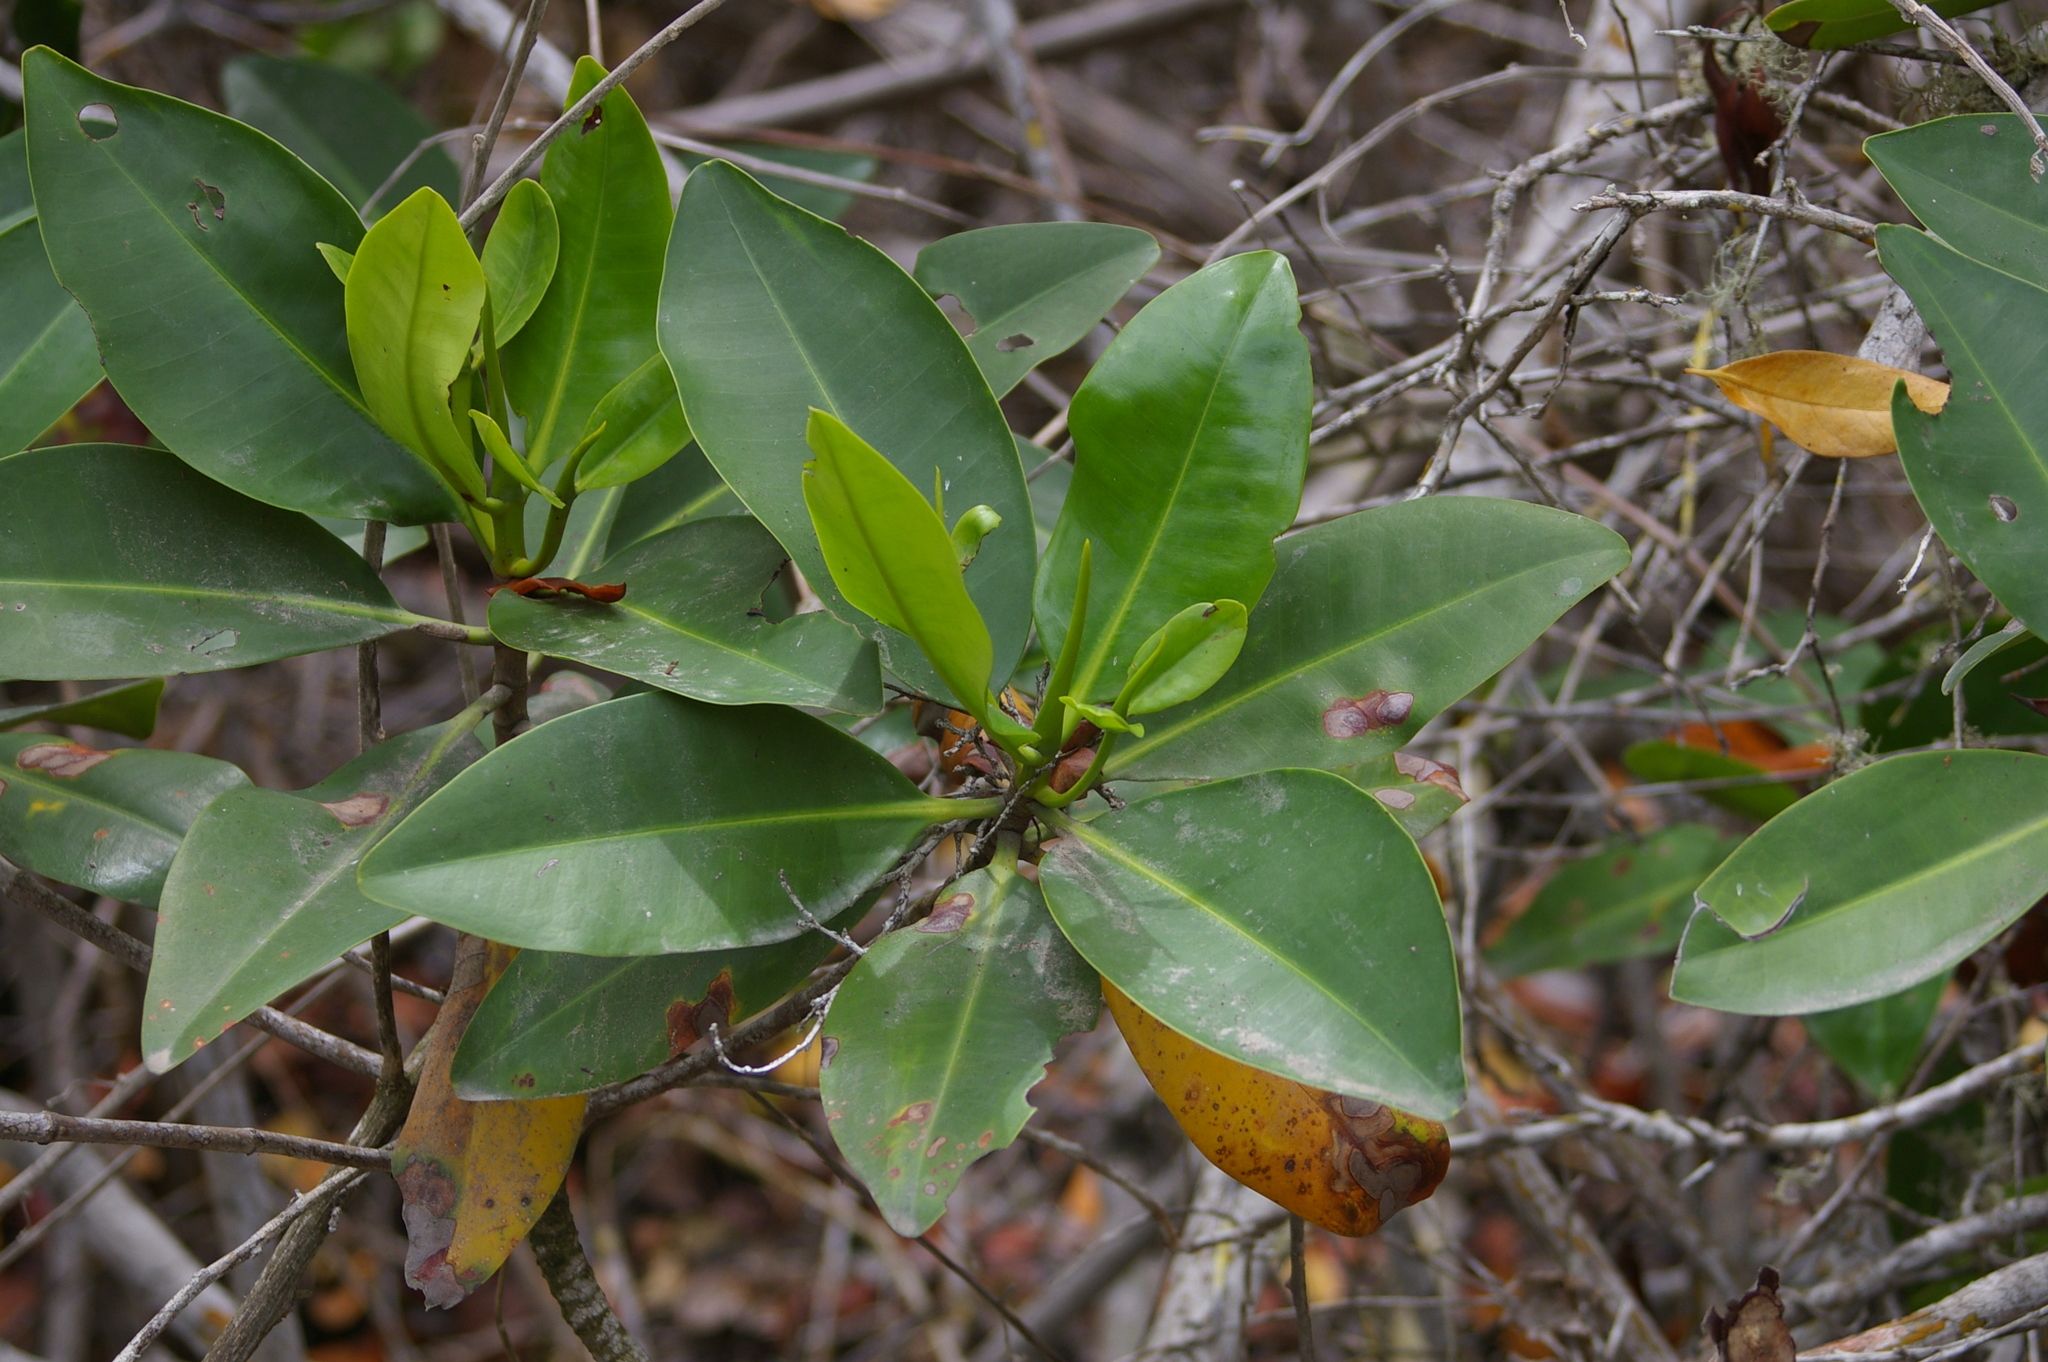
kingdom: Plantae
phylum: Tracheophyta
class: Magnoliopsida
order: Malpighiales
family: Rhizophoraceae
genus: Rhizophora
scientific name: Rhizophora mangle
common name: Red mangrove
